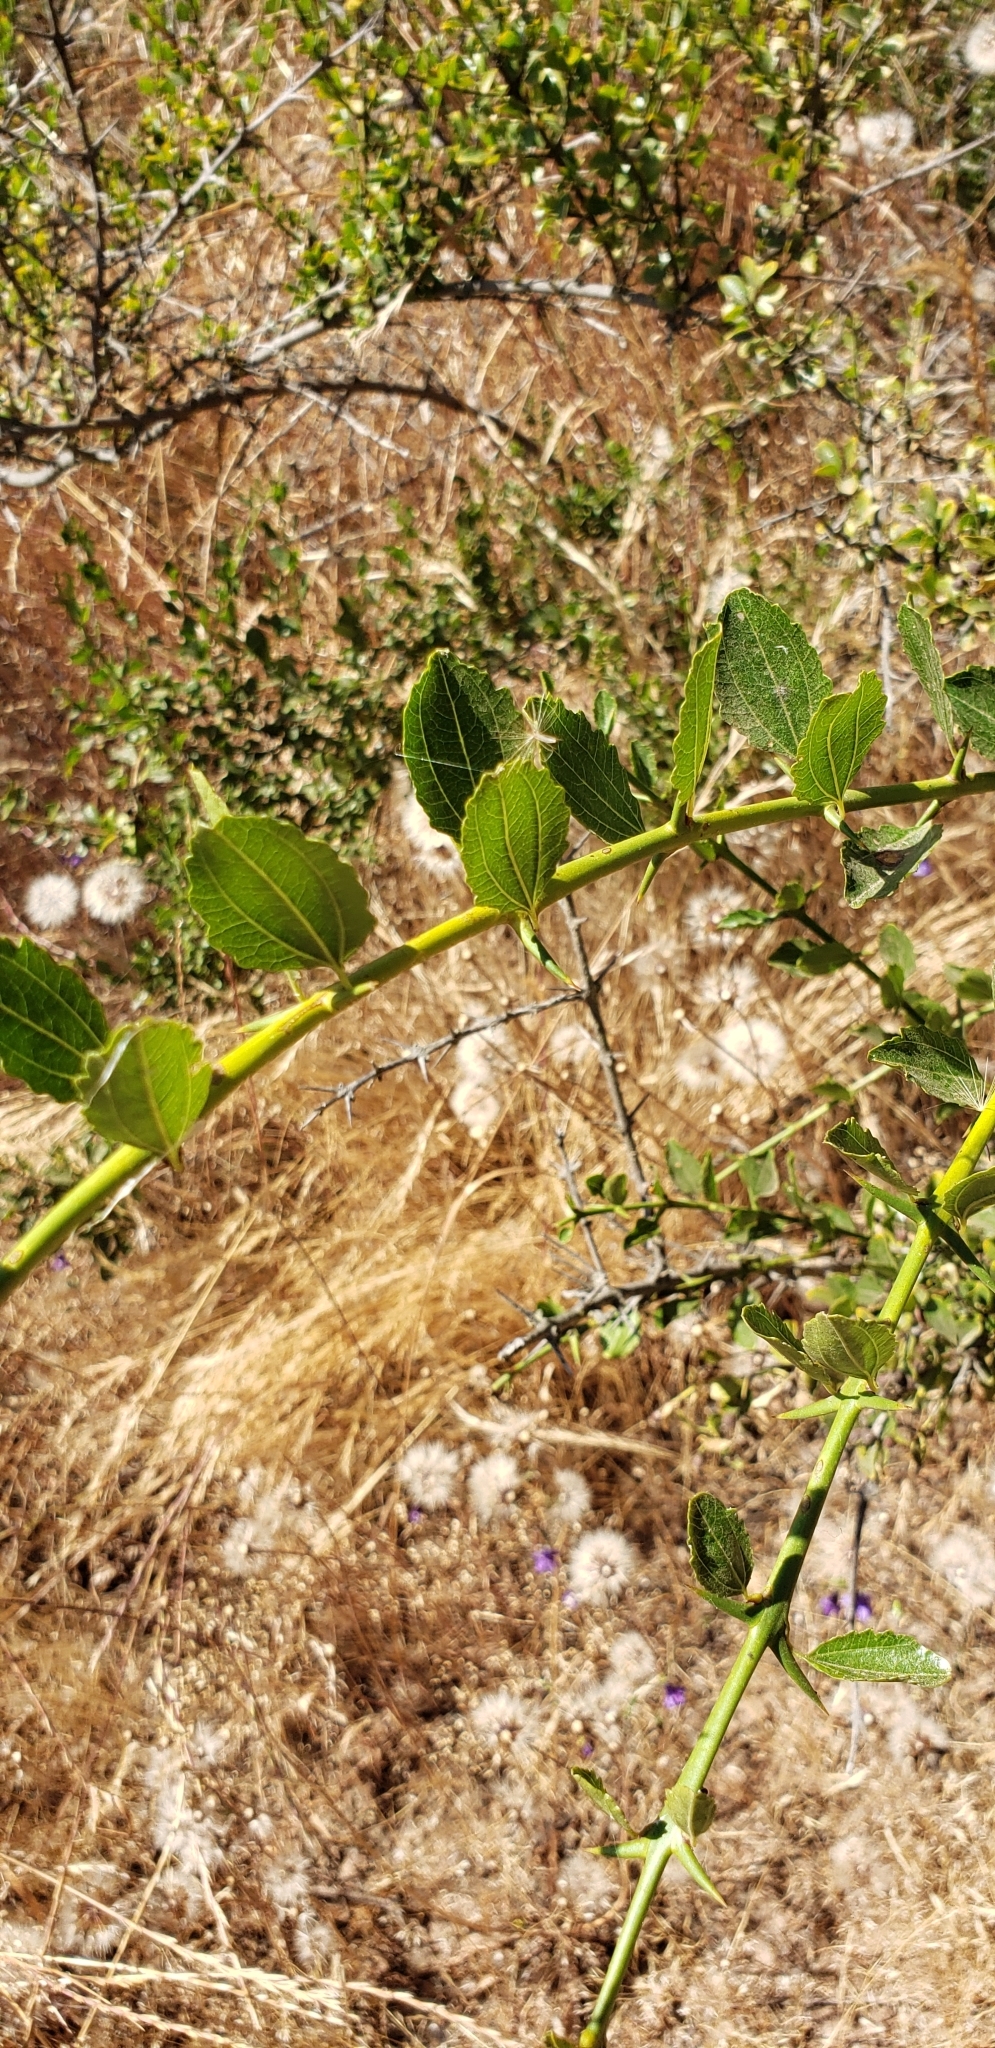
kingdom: Plantae
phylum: Tracheophyta
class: Magnoliopsida
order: Rosales
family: Rhamnaceae
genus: Retanilla
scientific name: Retanilla trinervia
